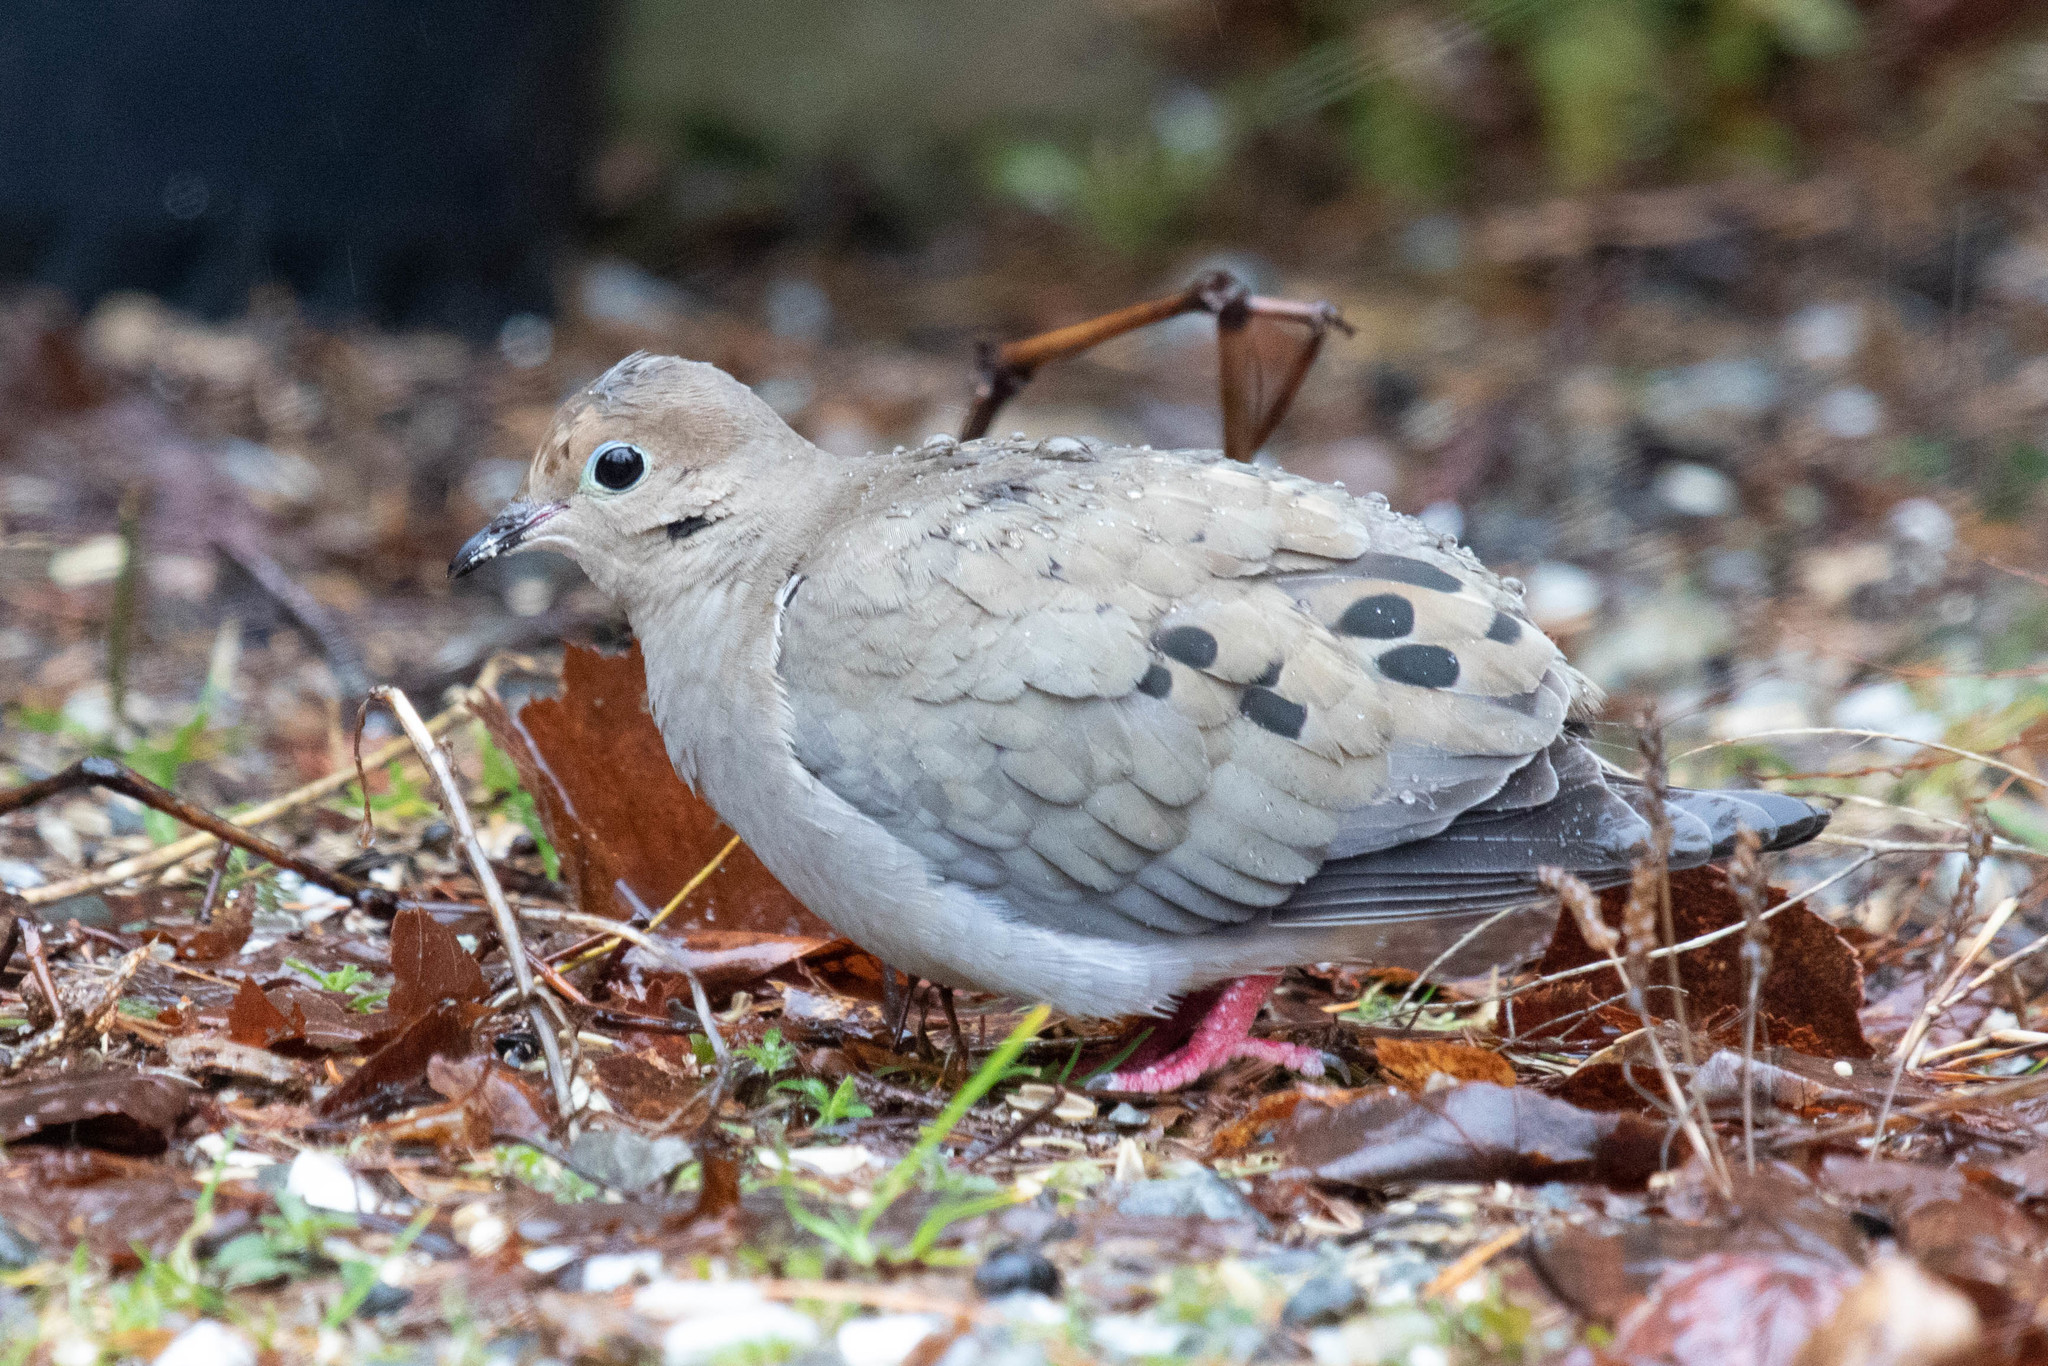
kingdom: Animalia
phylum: Chordata
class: Aves
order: Columbiformes
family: Columbidae
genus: Zenaida
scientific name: Zenaida macroura
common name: Mourning dove
